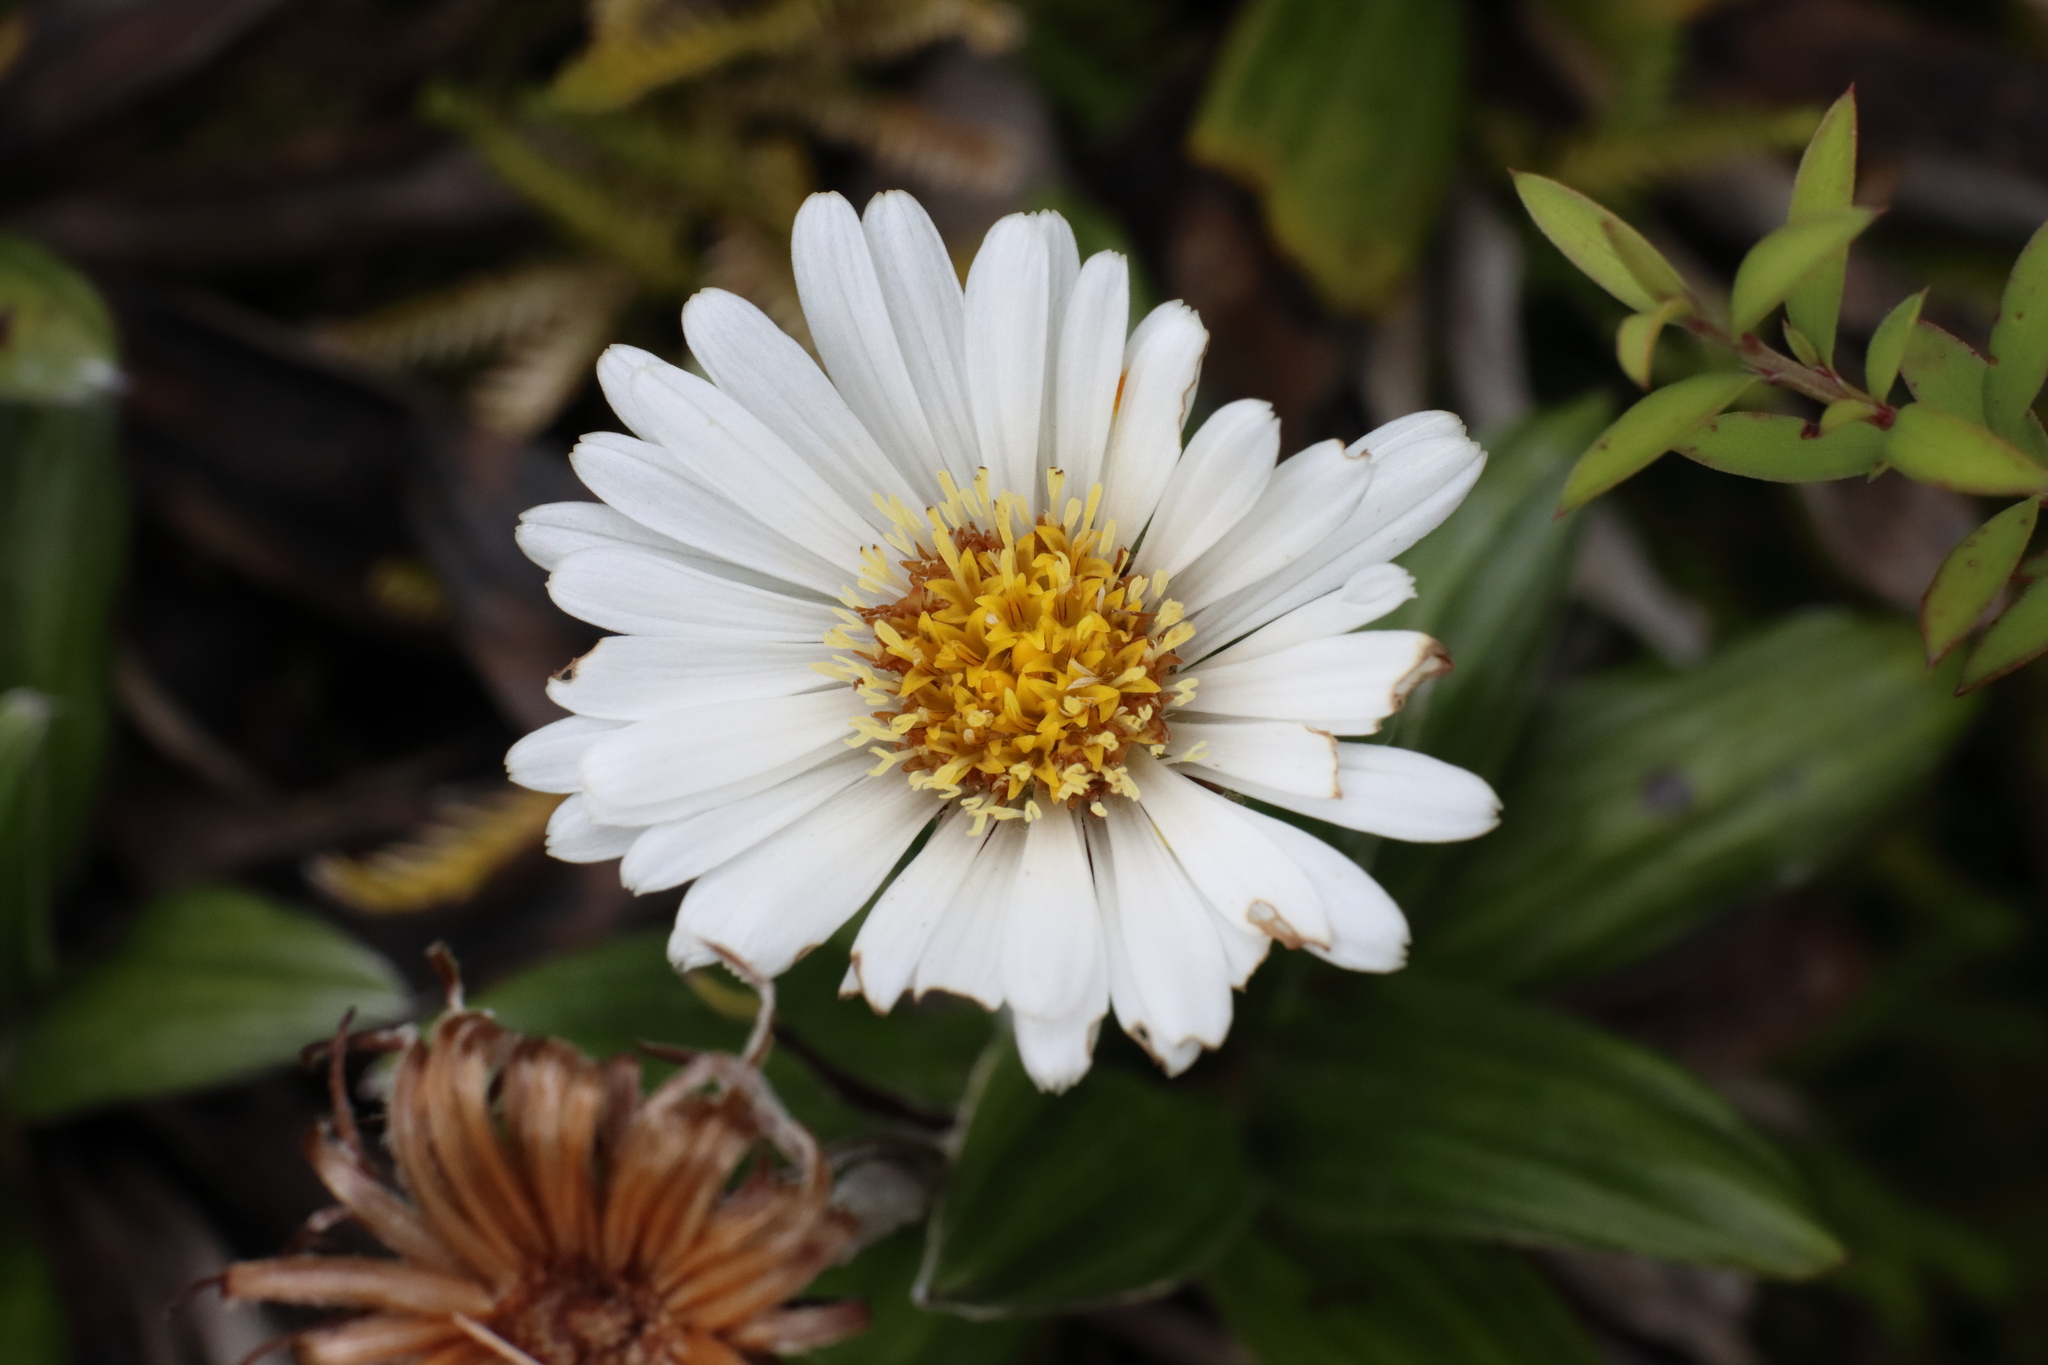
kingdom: Plantae
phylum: Tracheophyta
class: Magnoliopsida
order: Asterales
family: Asteraceae
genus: Celmisia
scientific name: Celmisia spectabilis
